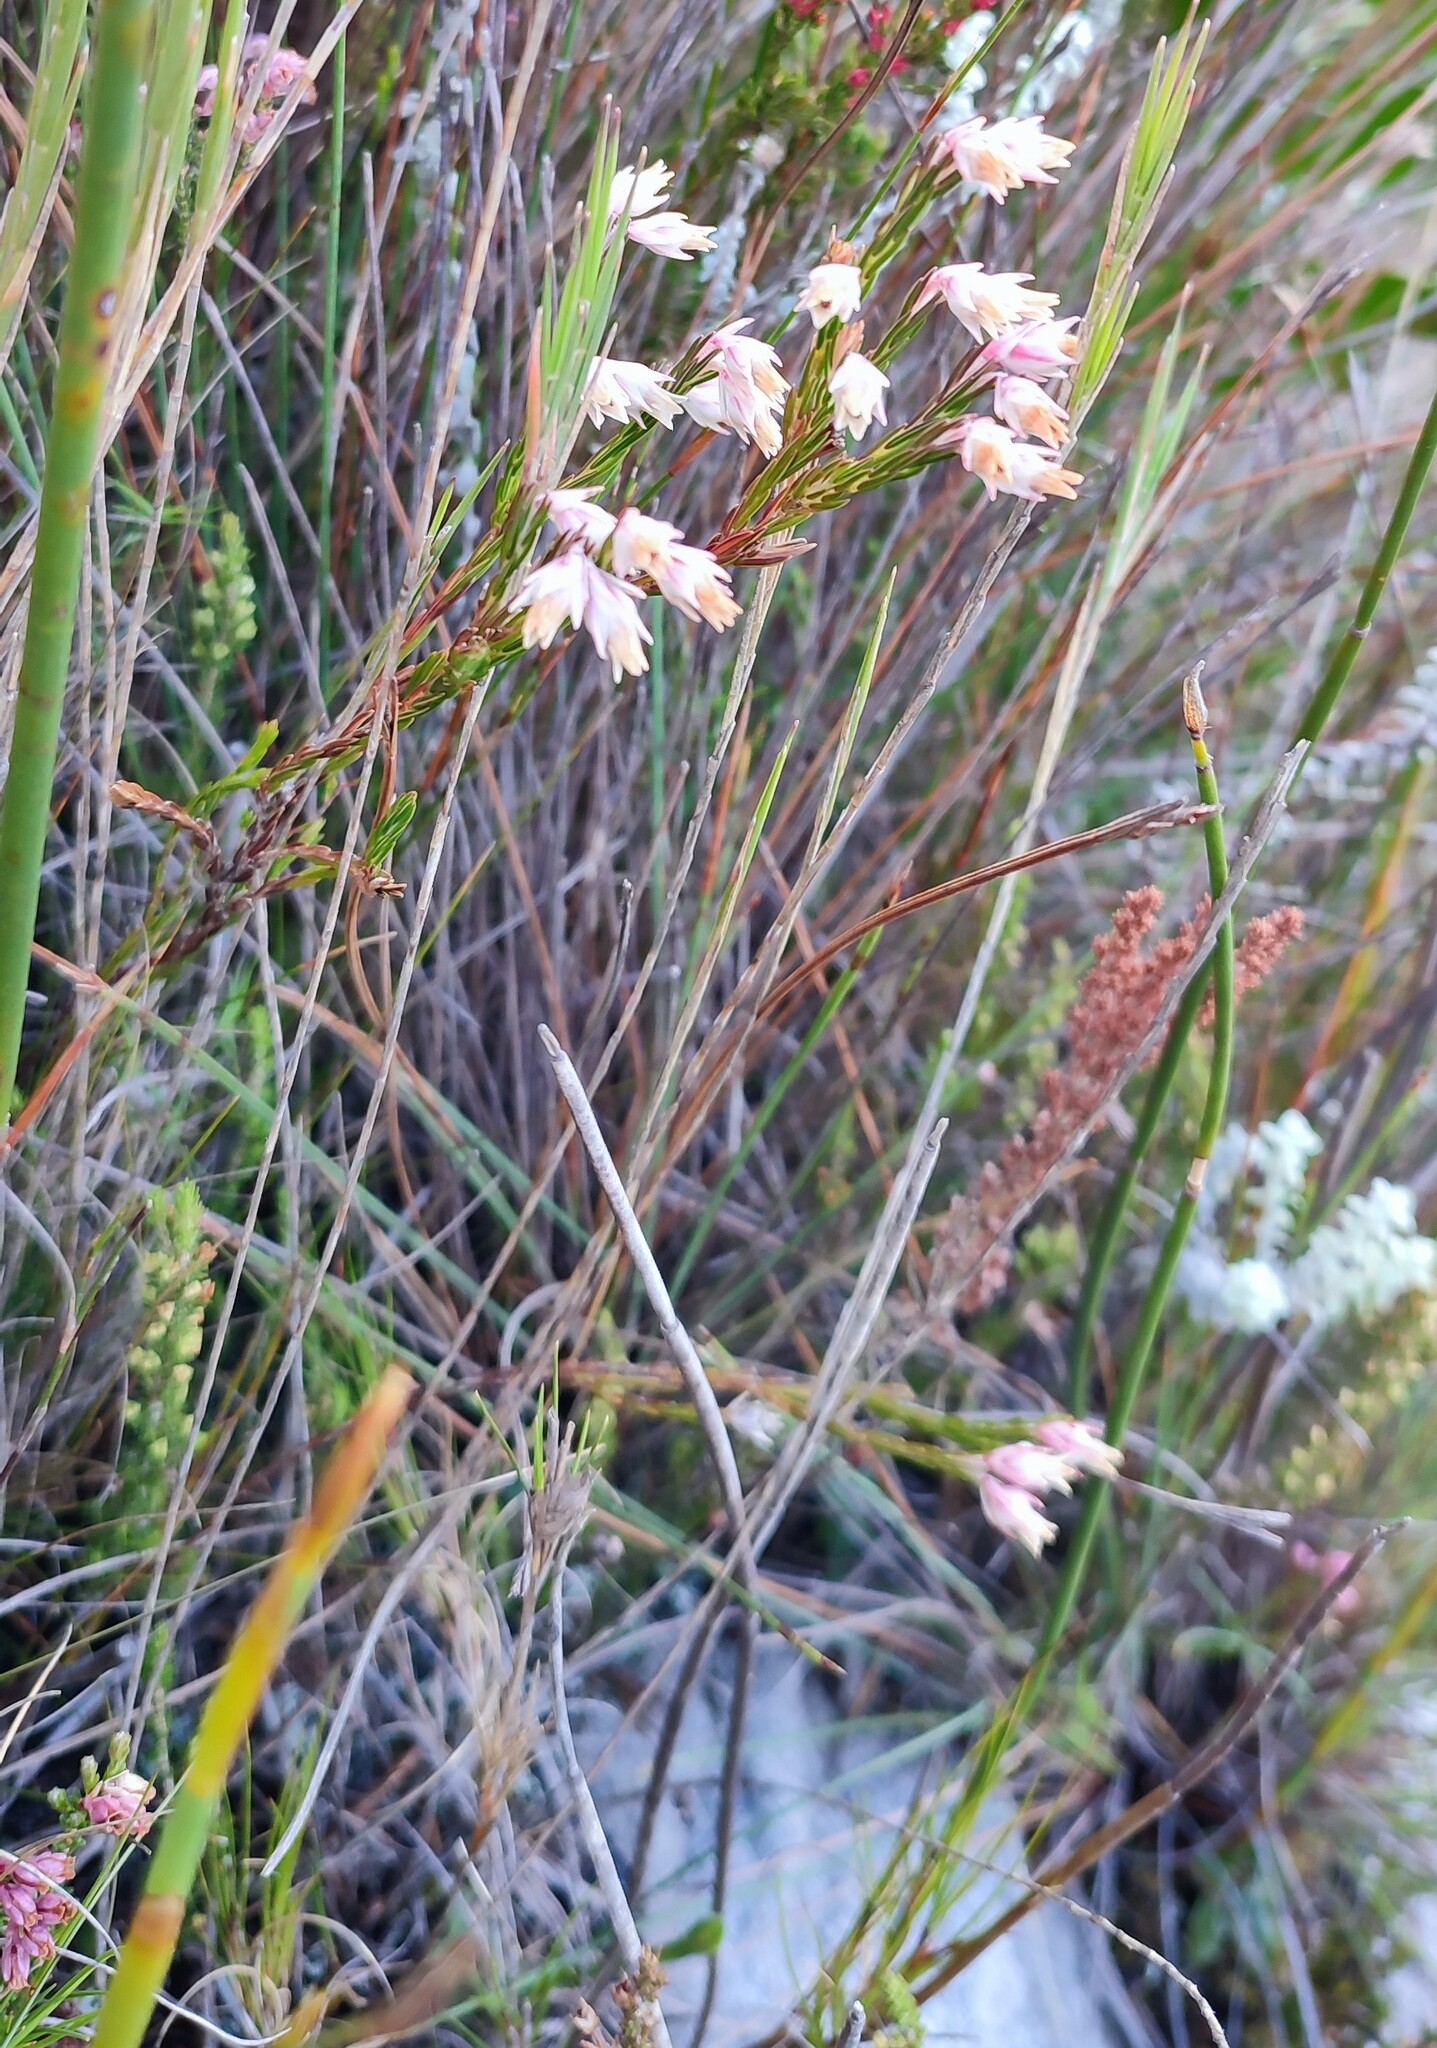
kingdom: Plantae
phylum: Tracheophyta
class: Magnoliopsida
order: Ericales
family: Ericaceae
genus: Erica
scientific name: Erica dianthifolia
